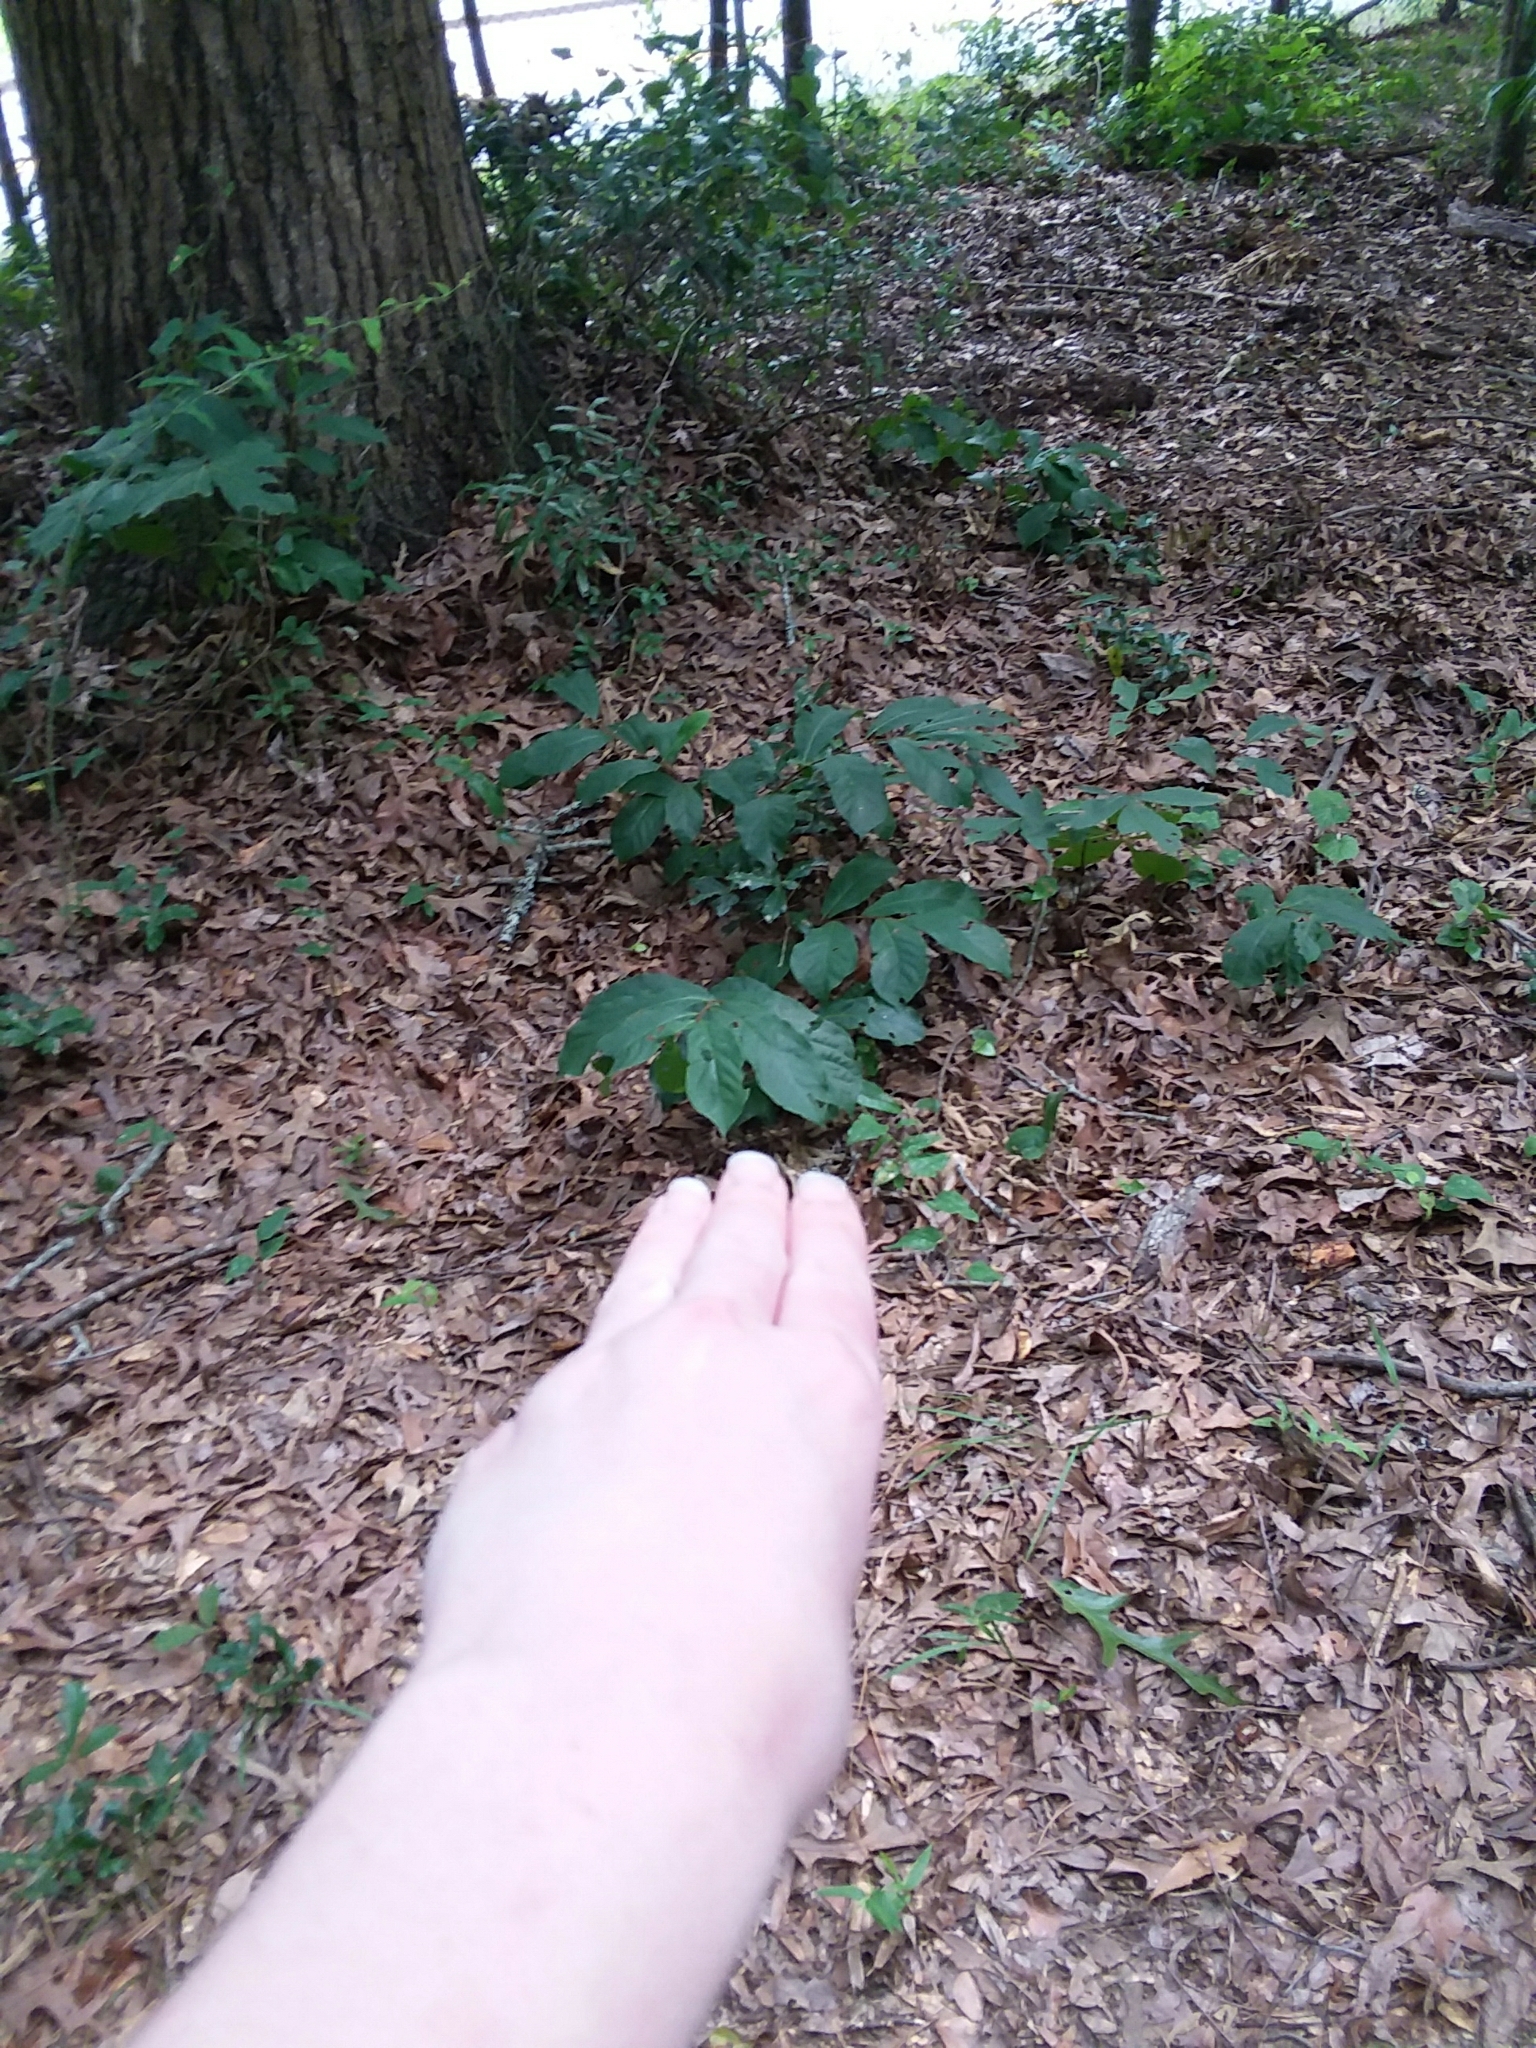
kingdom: Plantae
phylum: Tracheophyta
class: Magnoliopsida
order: Magnoliales
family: Annonaceae
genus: Asimina
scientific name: Asimina parviflora
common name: Dwarf pawpaw
